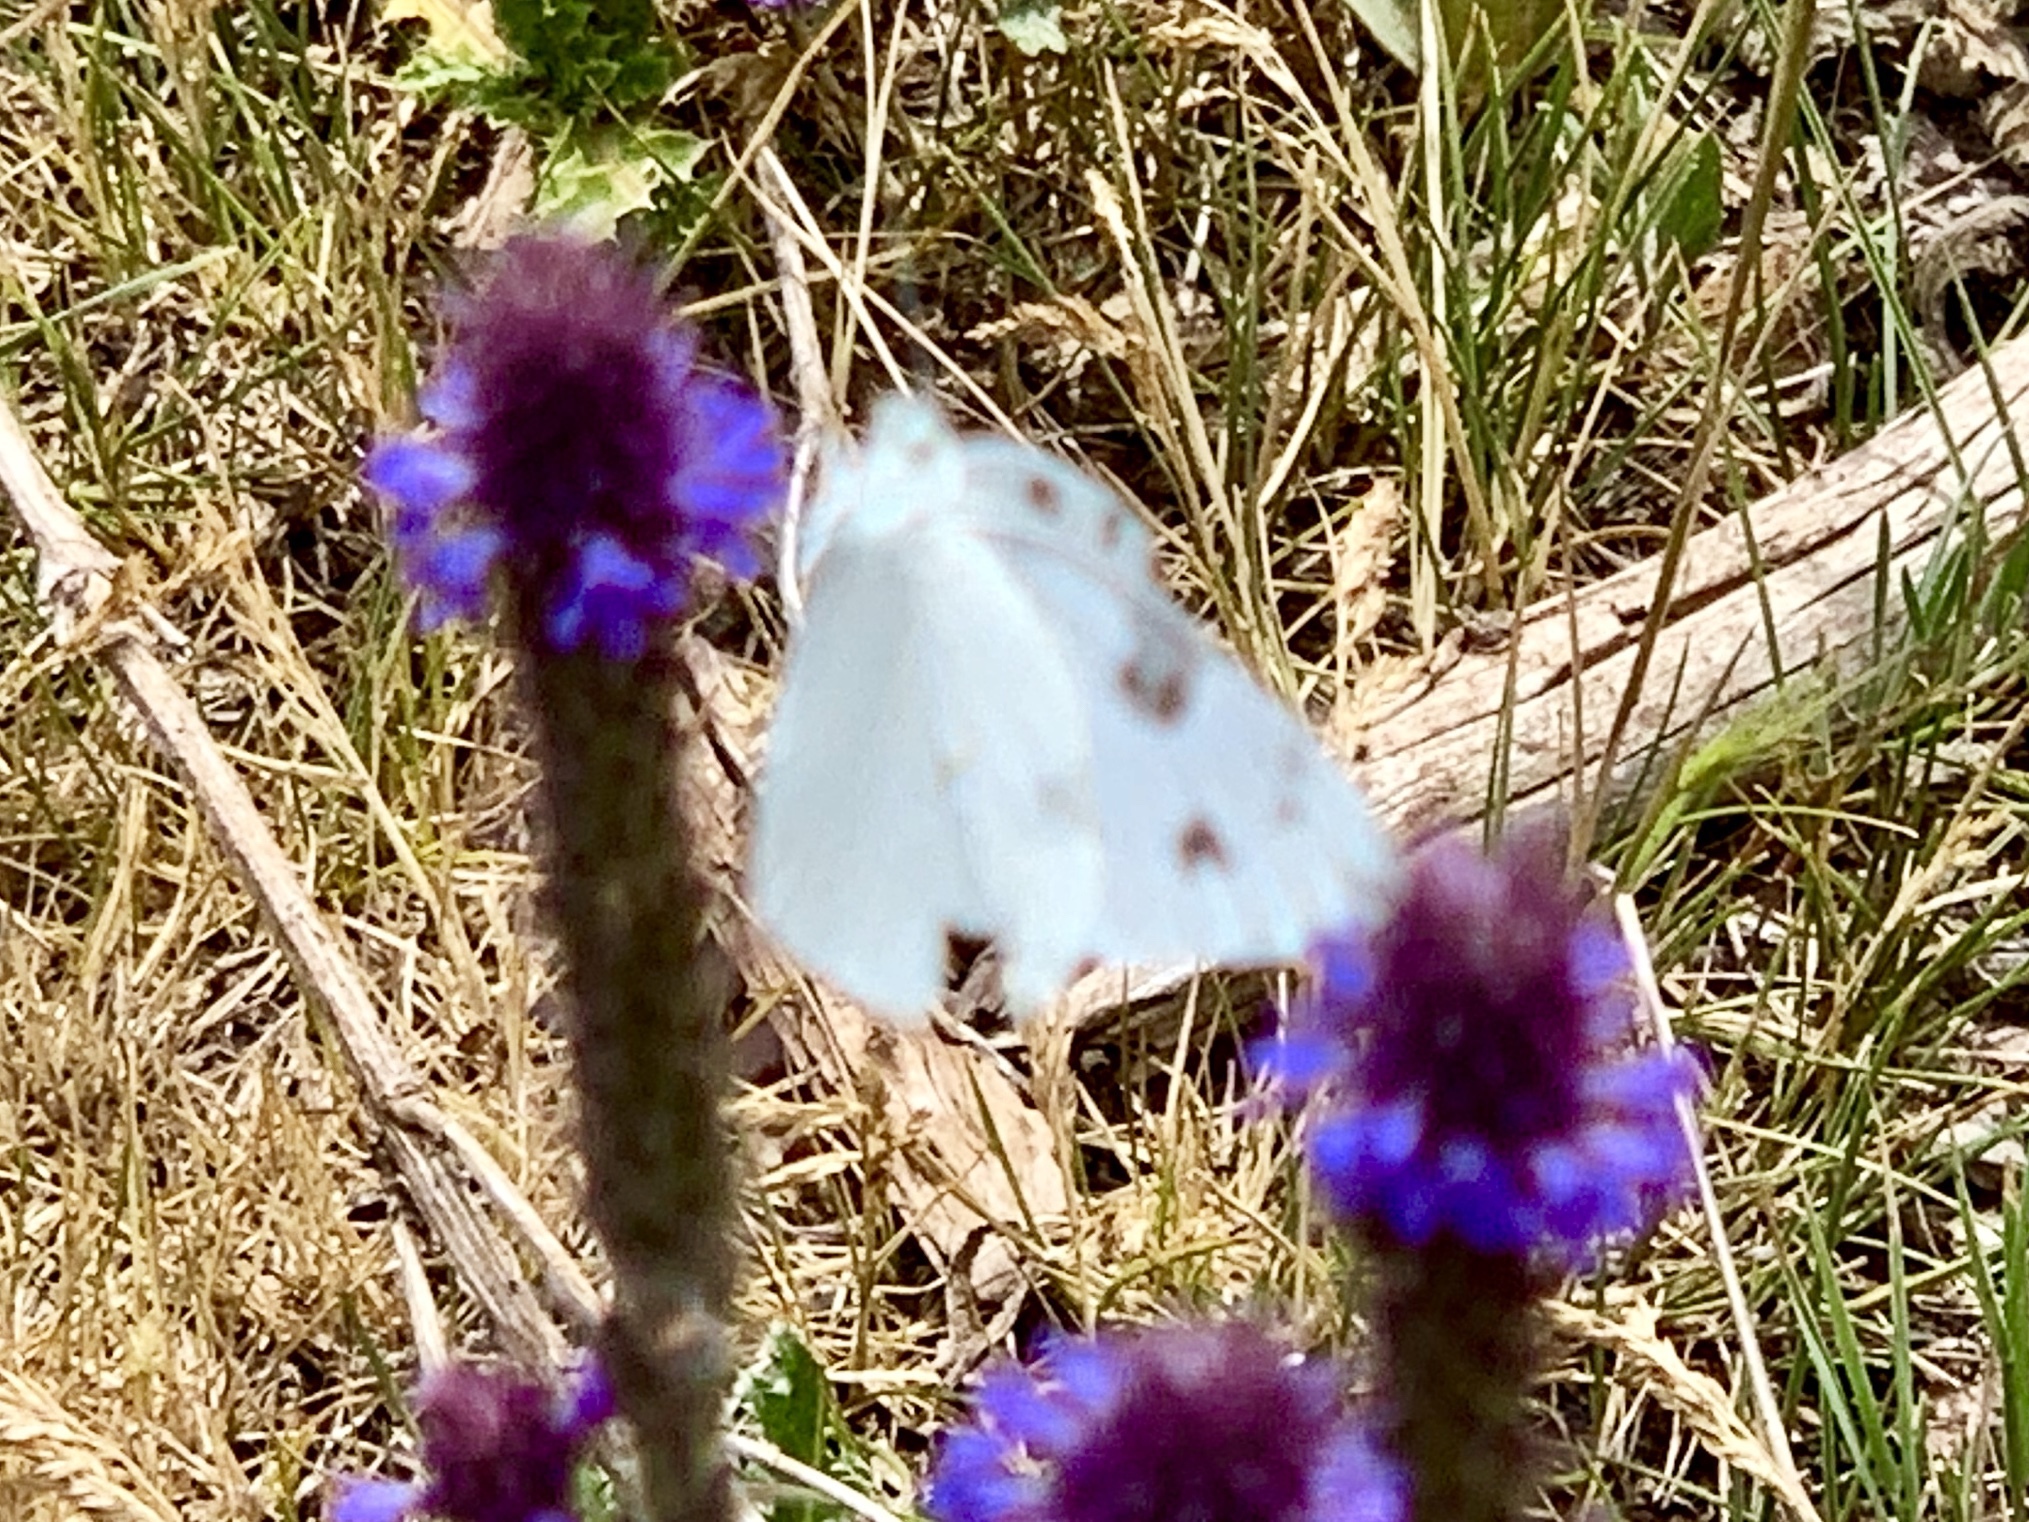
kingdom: Animalia
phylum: Arthropoda
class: Insecta
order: Lepidoptera
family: Pieridae
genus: Pontia
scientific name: Pontia protodice
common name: Checkered white
